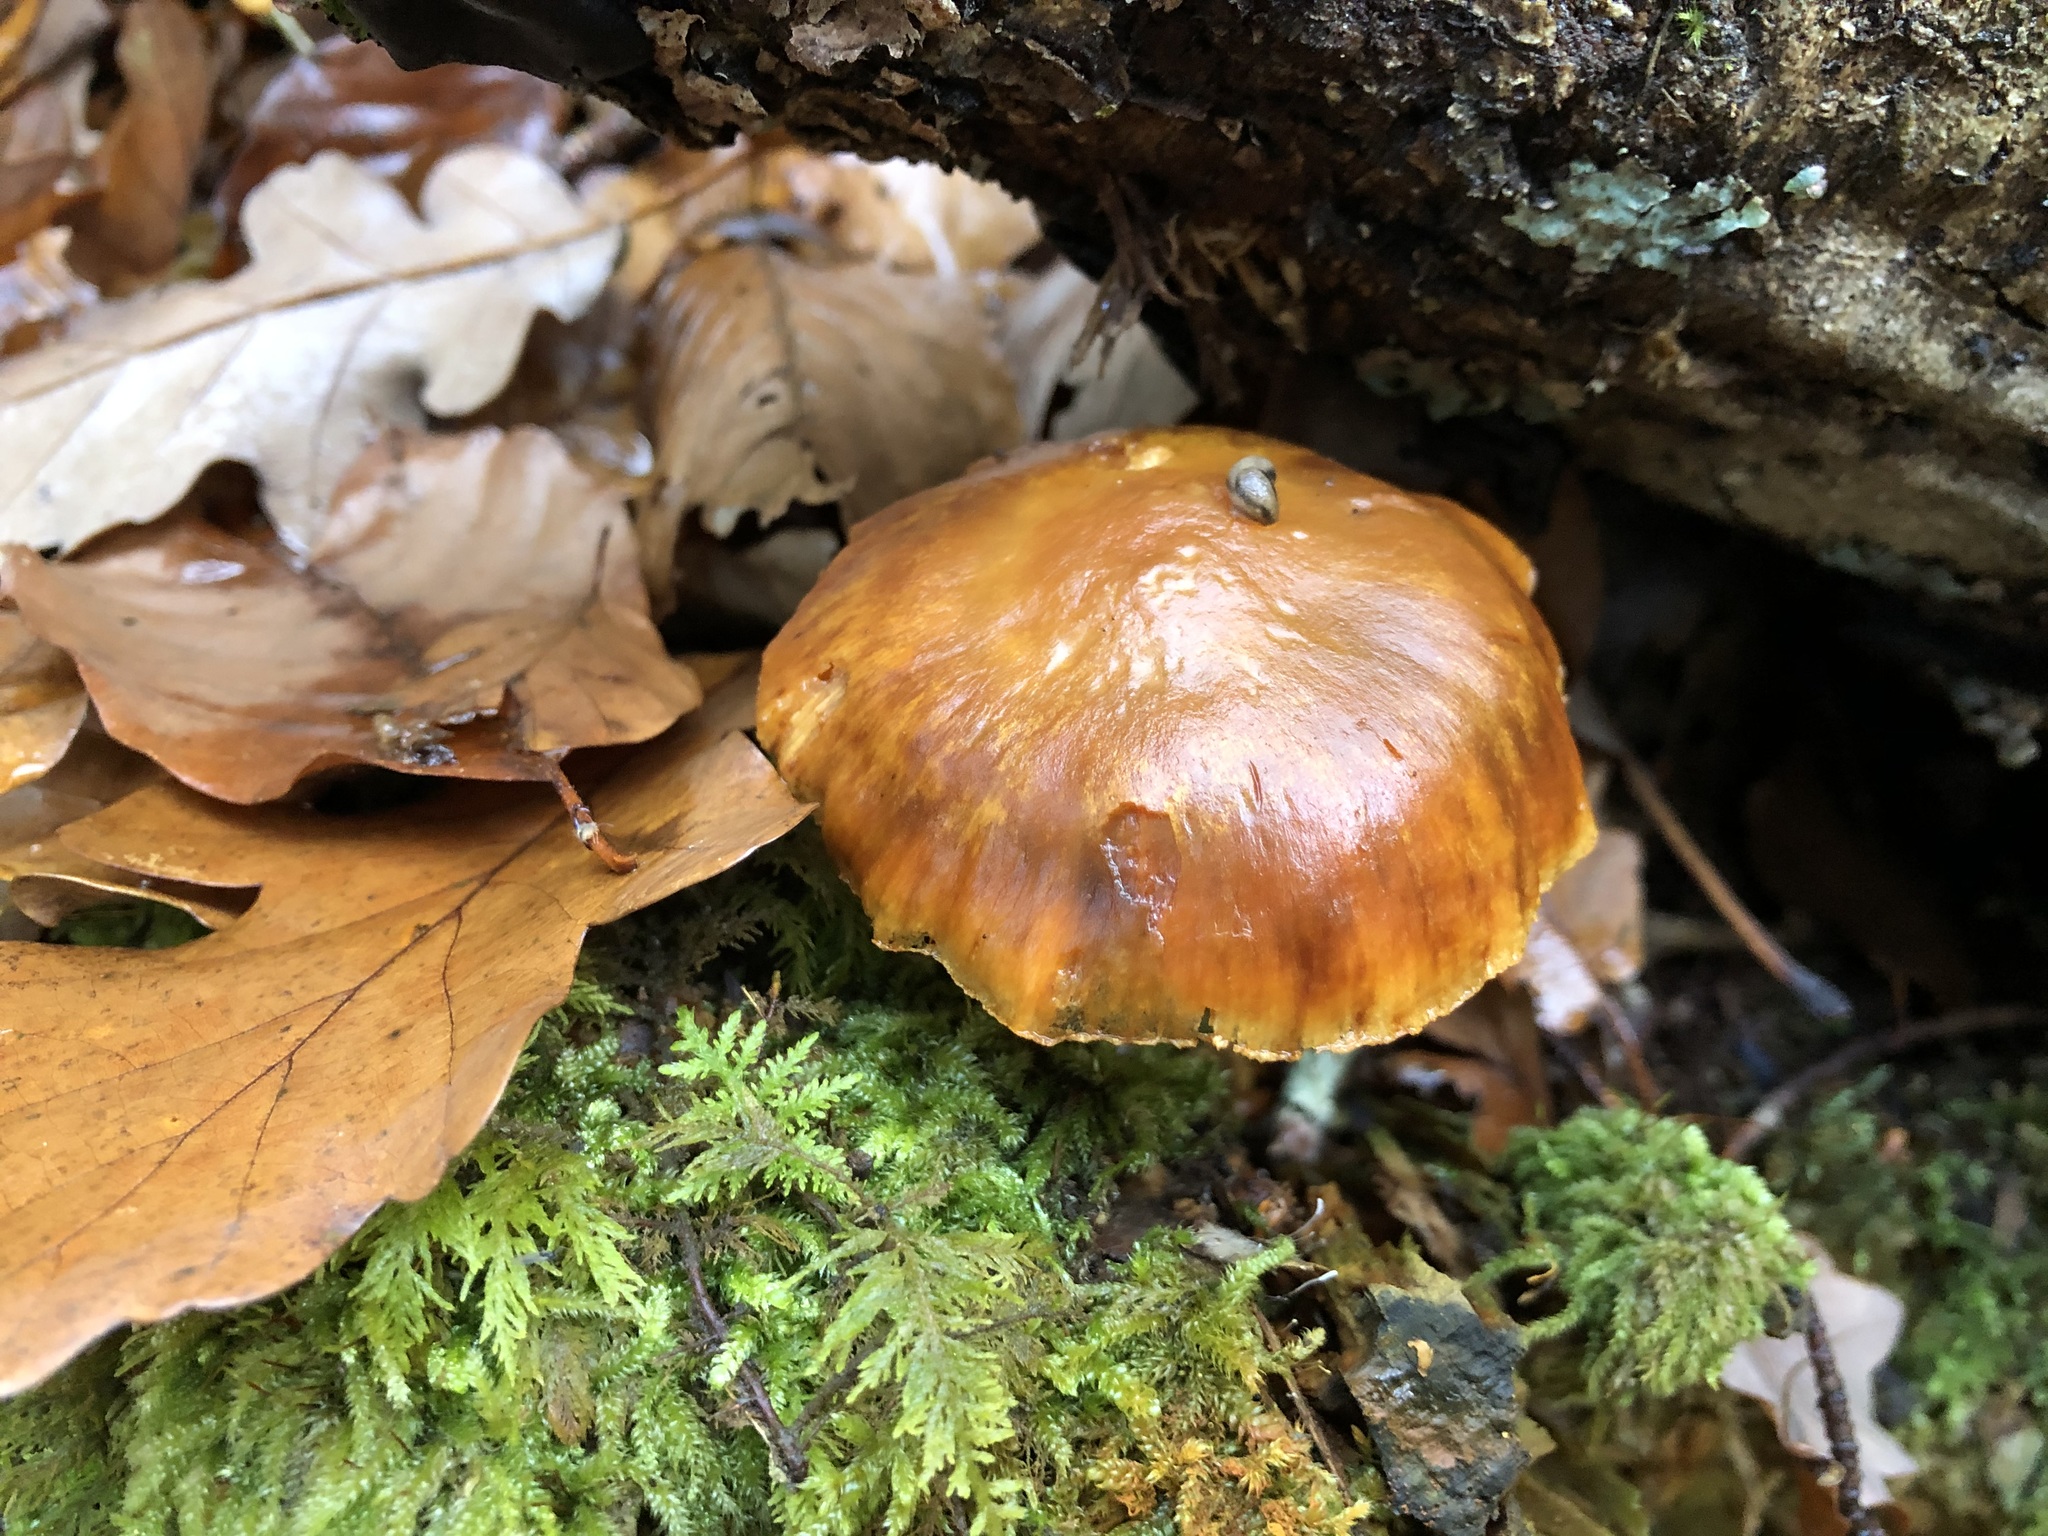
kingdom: Fungi
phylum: Basidiomycota
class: Agaricomycetes
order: Agaricales
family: Hymenogastraceae
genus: Gymnopilus
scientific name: Gymnopilus penetrans
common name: Common rustgill
